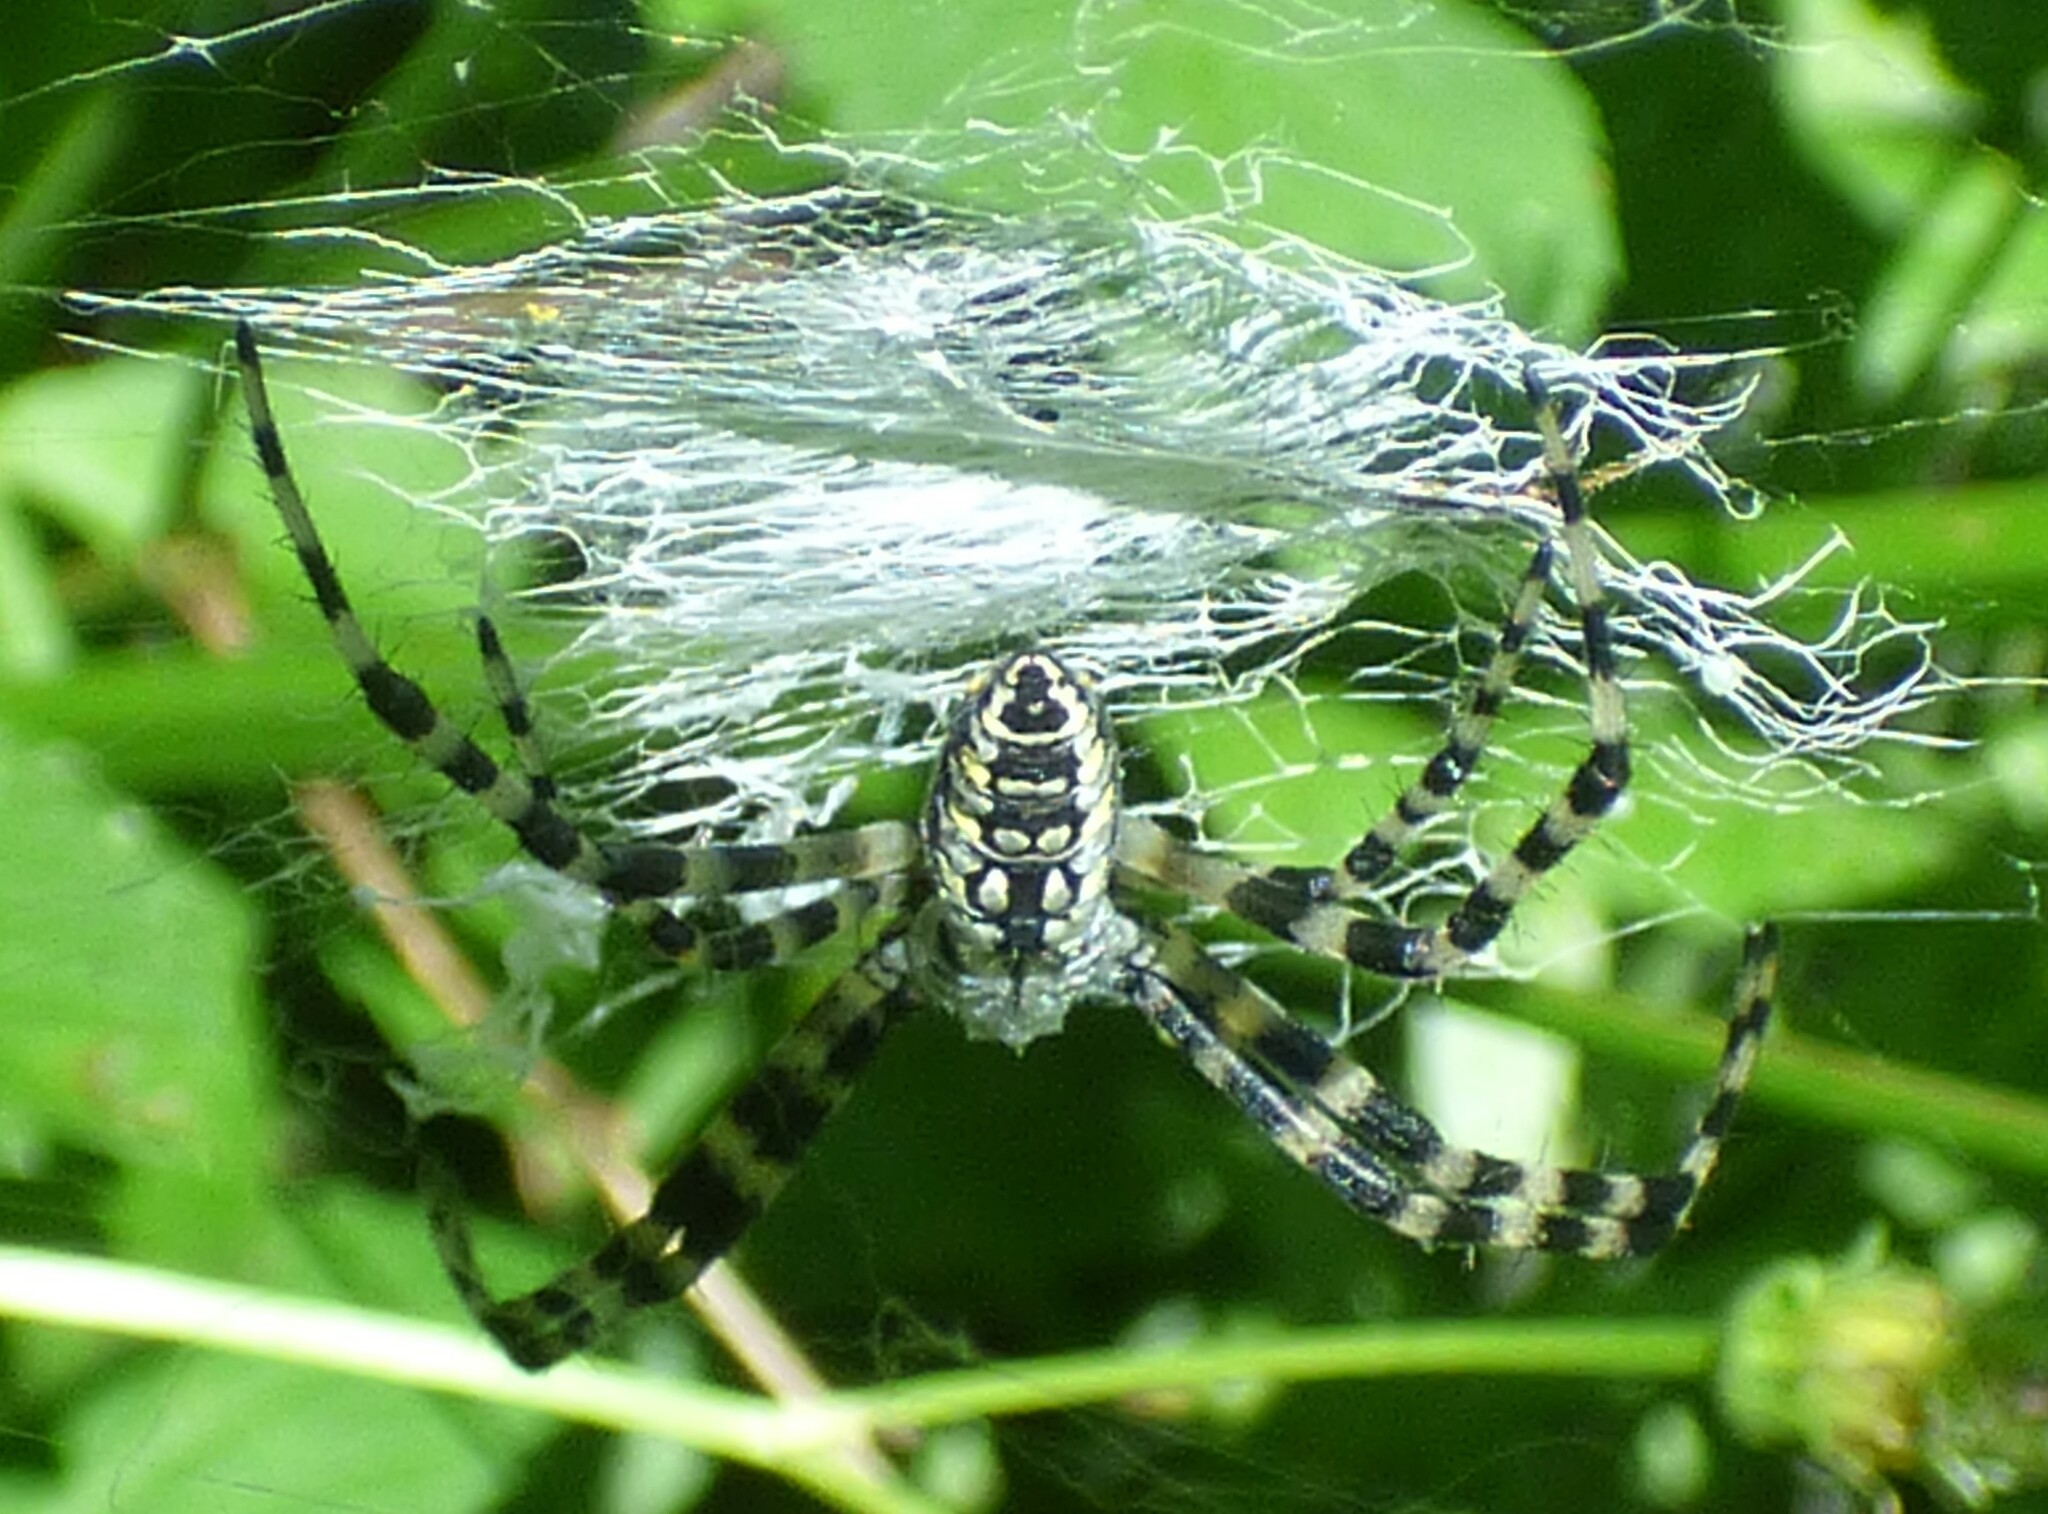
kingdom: Animalia
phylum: Arthropoda
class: Arachnida
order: Araneae
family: Araneidae
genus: Argiope
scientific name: Argiope aurantia
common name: Orb weavers
